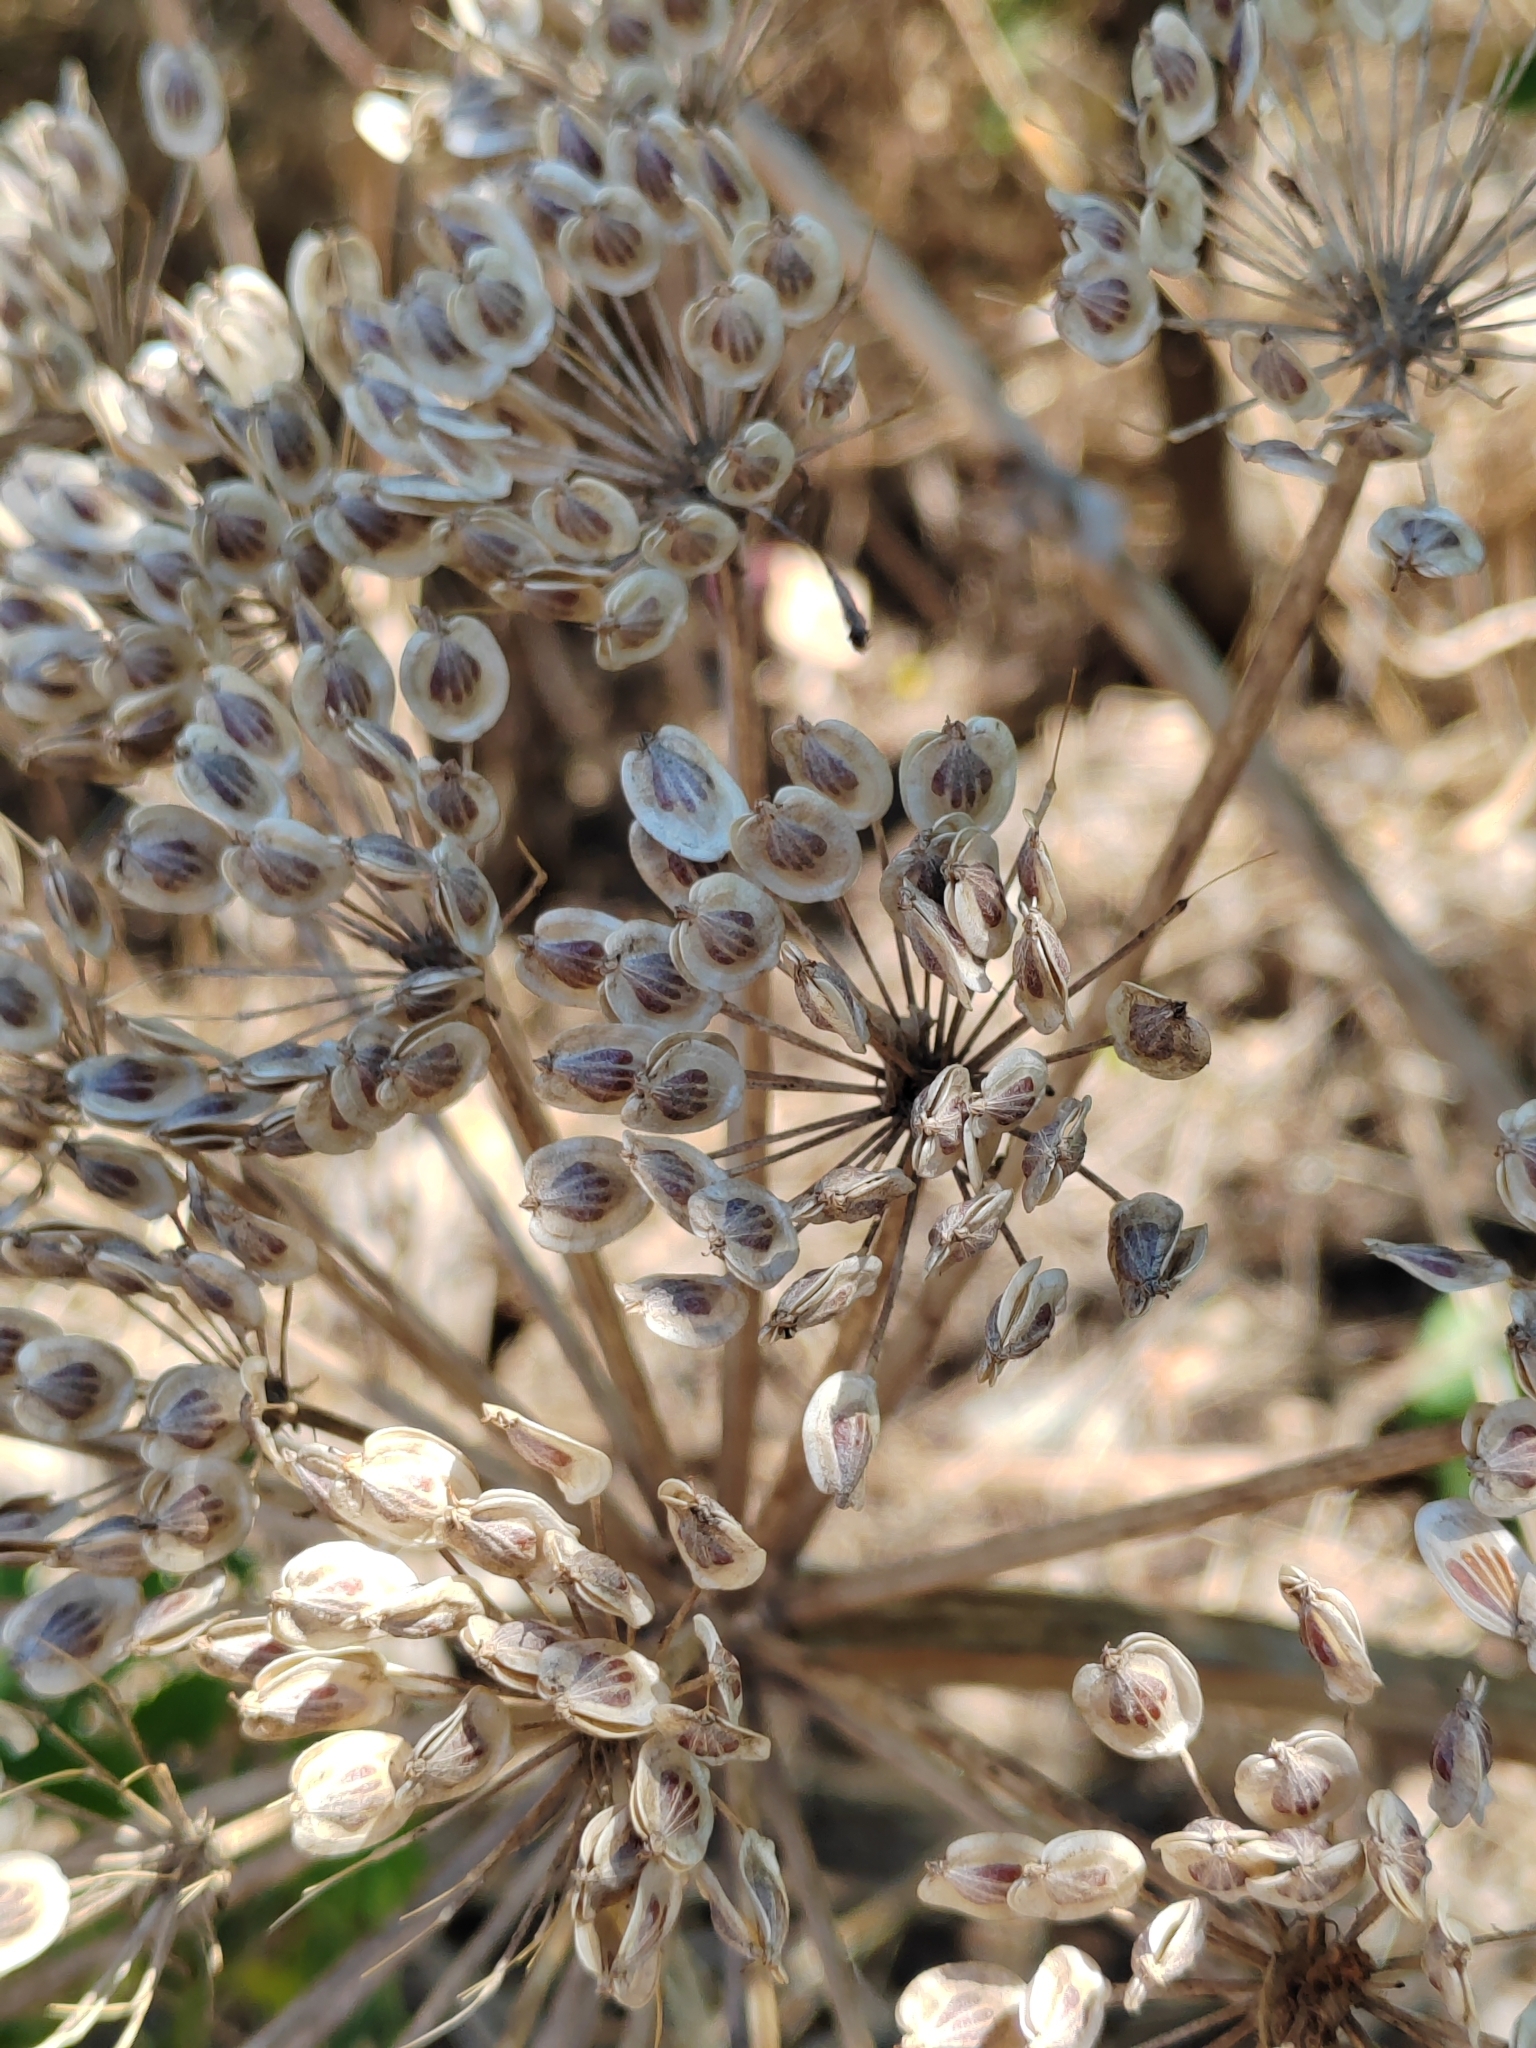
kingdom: Plantae
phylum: Tracheophyta
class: Magnoliopsida
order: Apiales
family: Apiaceae
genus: Heracleum
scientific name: Heracleum stevenii
